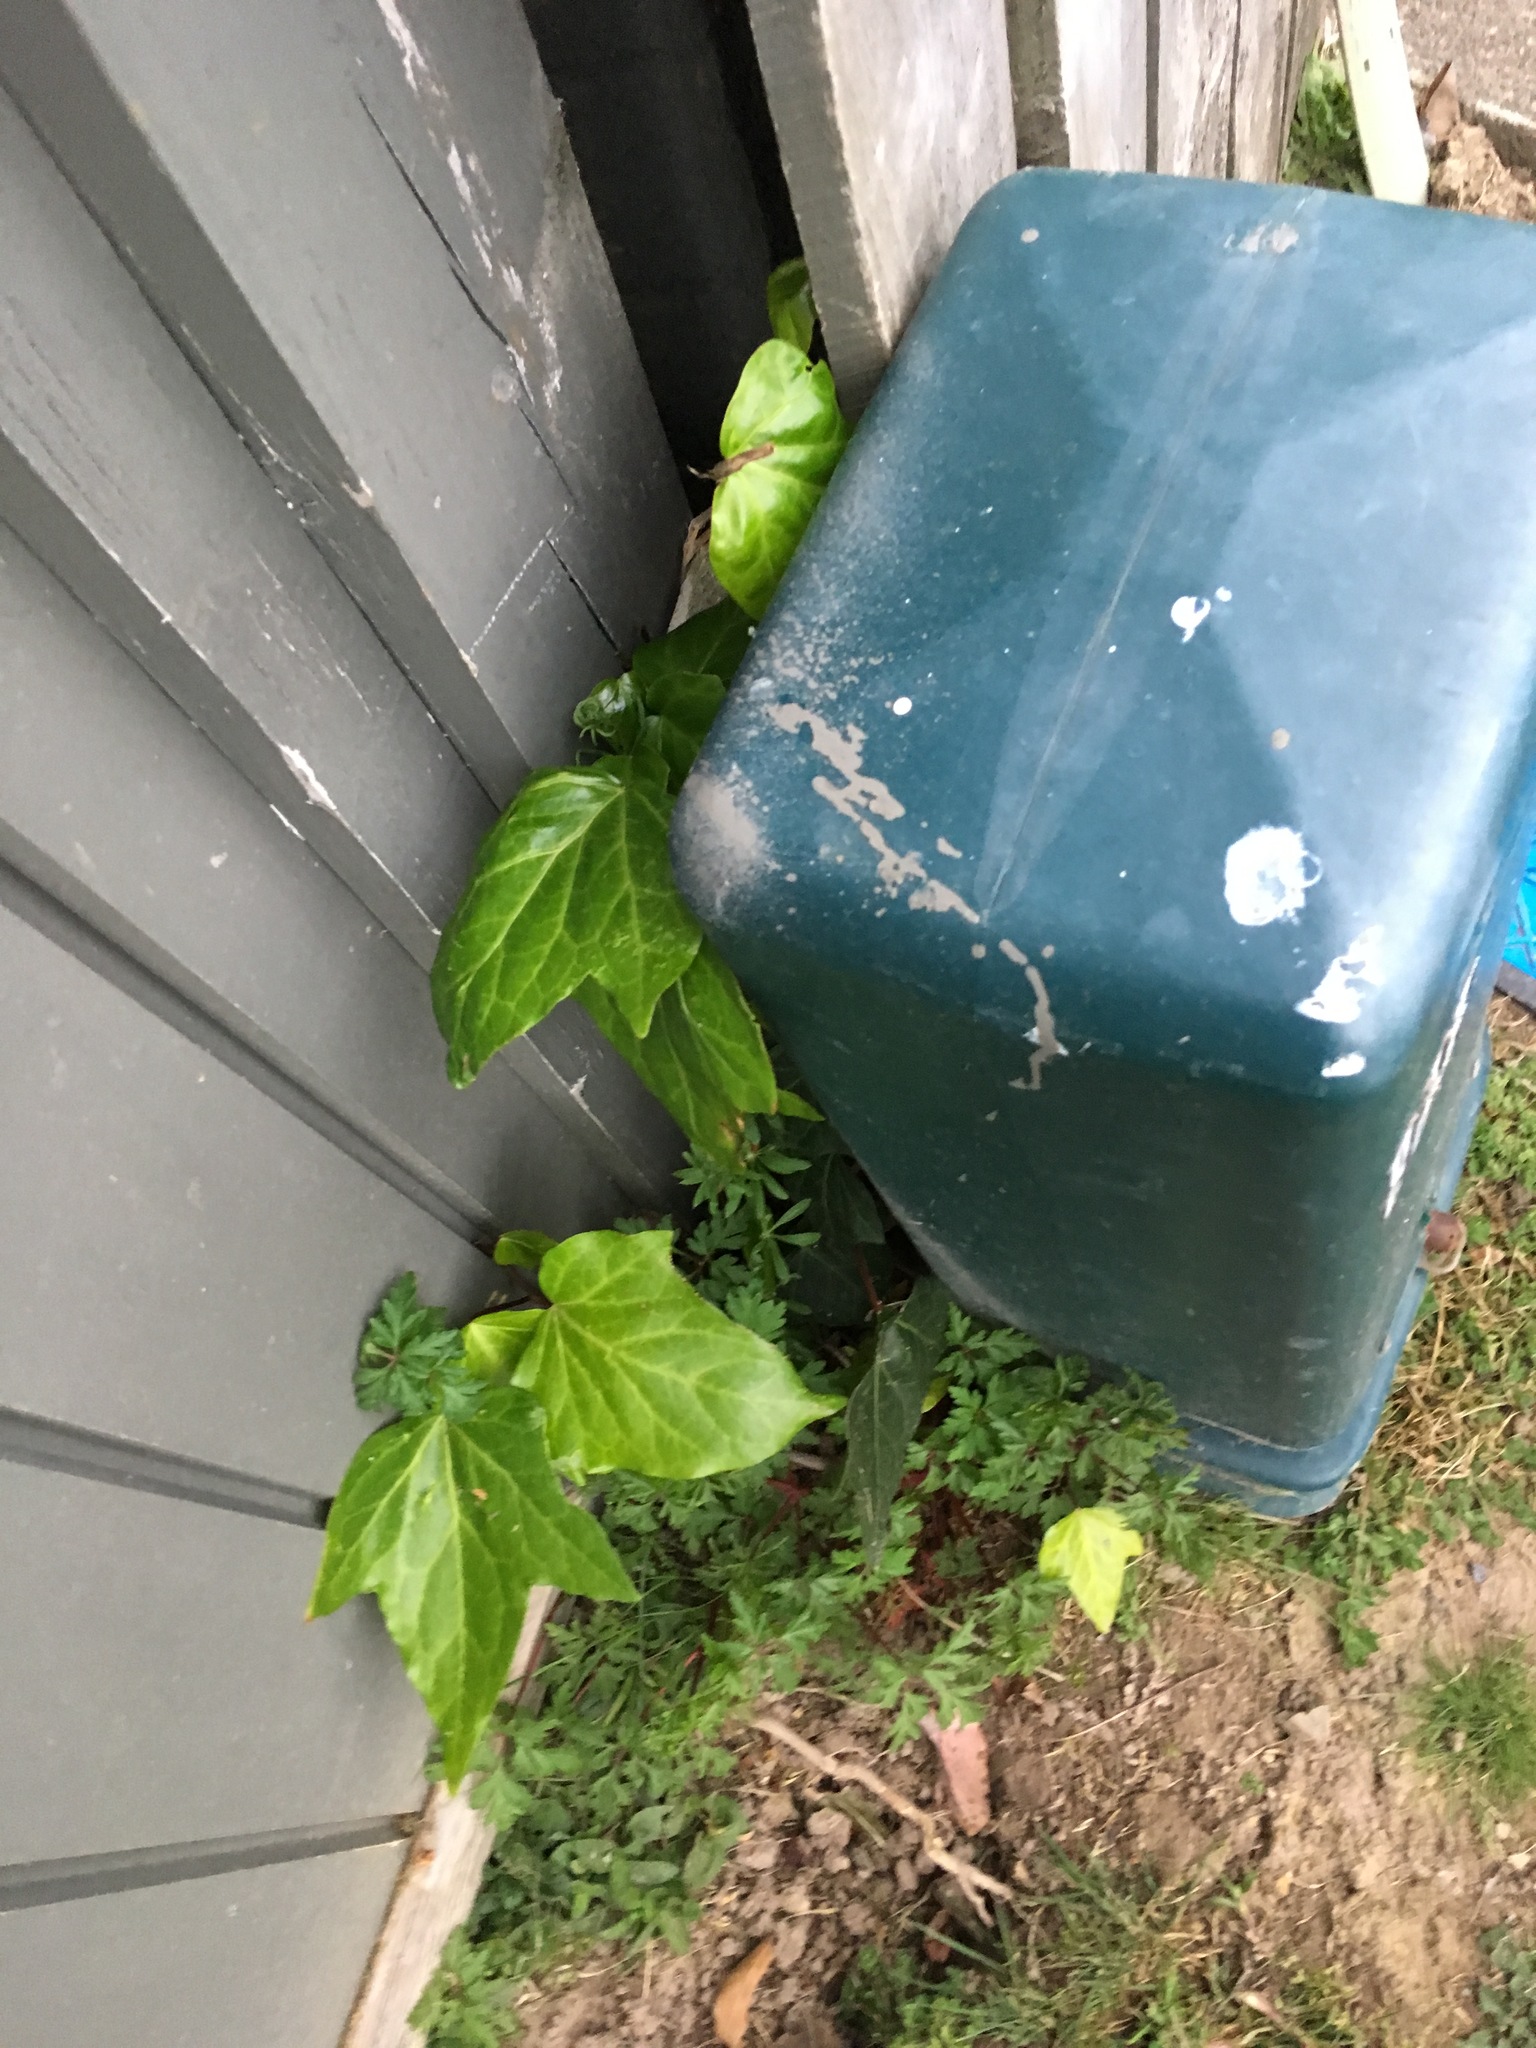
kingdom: Plantae
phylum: Tracheophyta
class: Magnoliopsida
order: Apiales
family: Araliaceae
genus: Hedera
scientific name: Hedera helix
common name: Ivy
